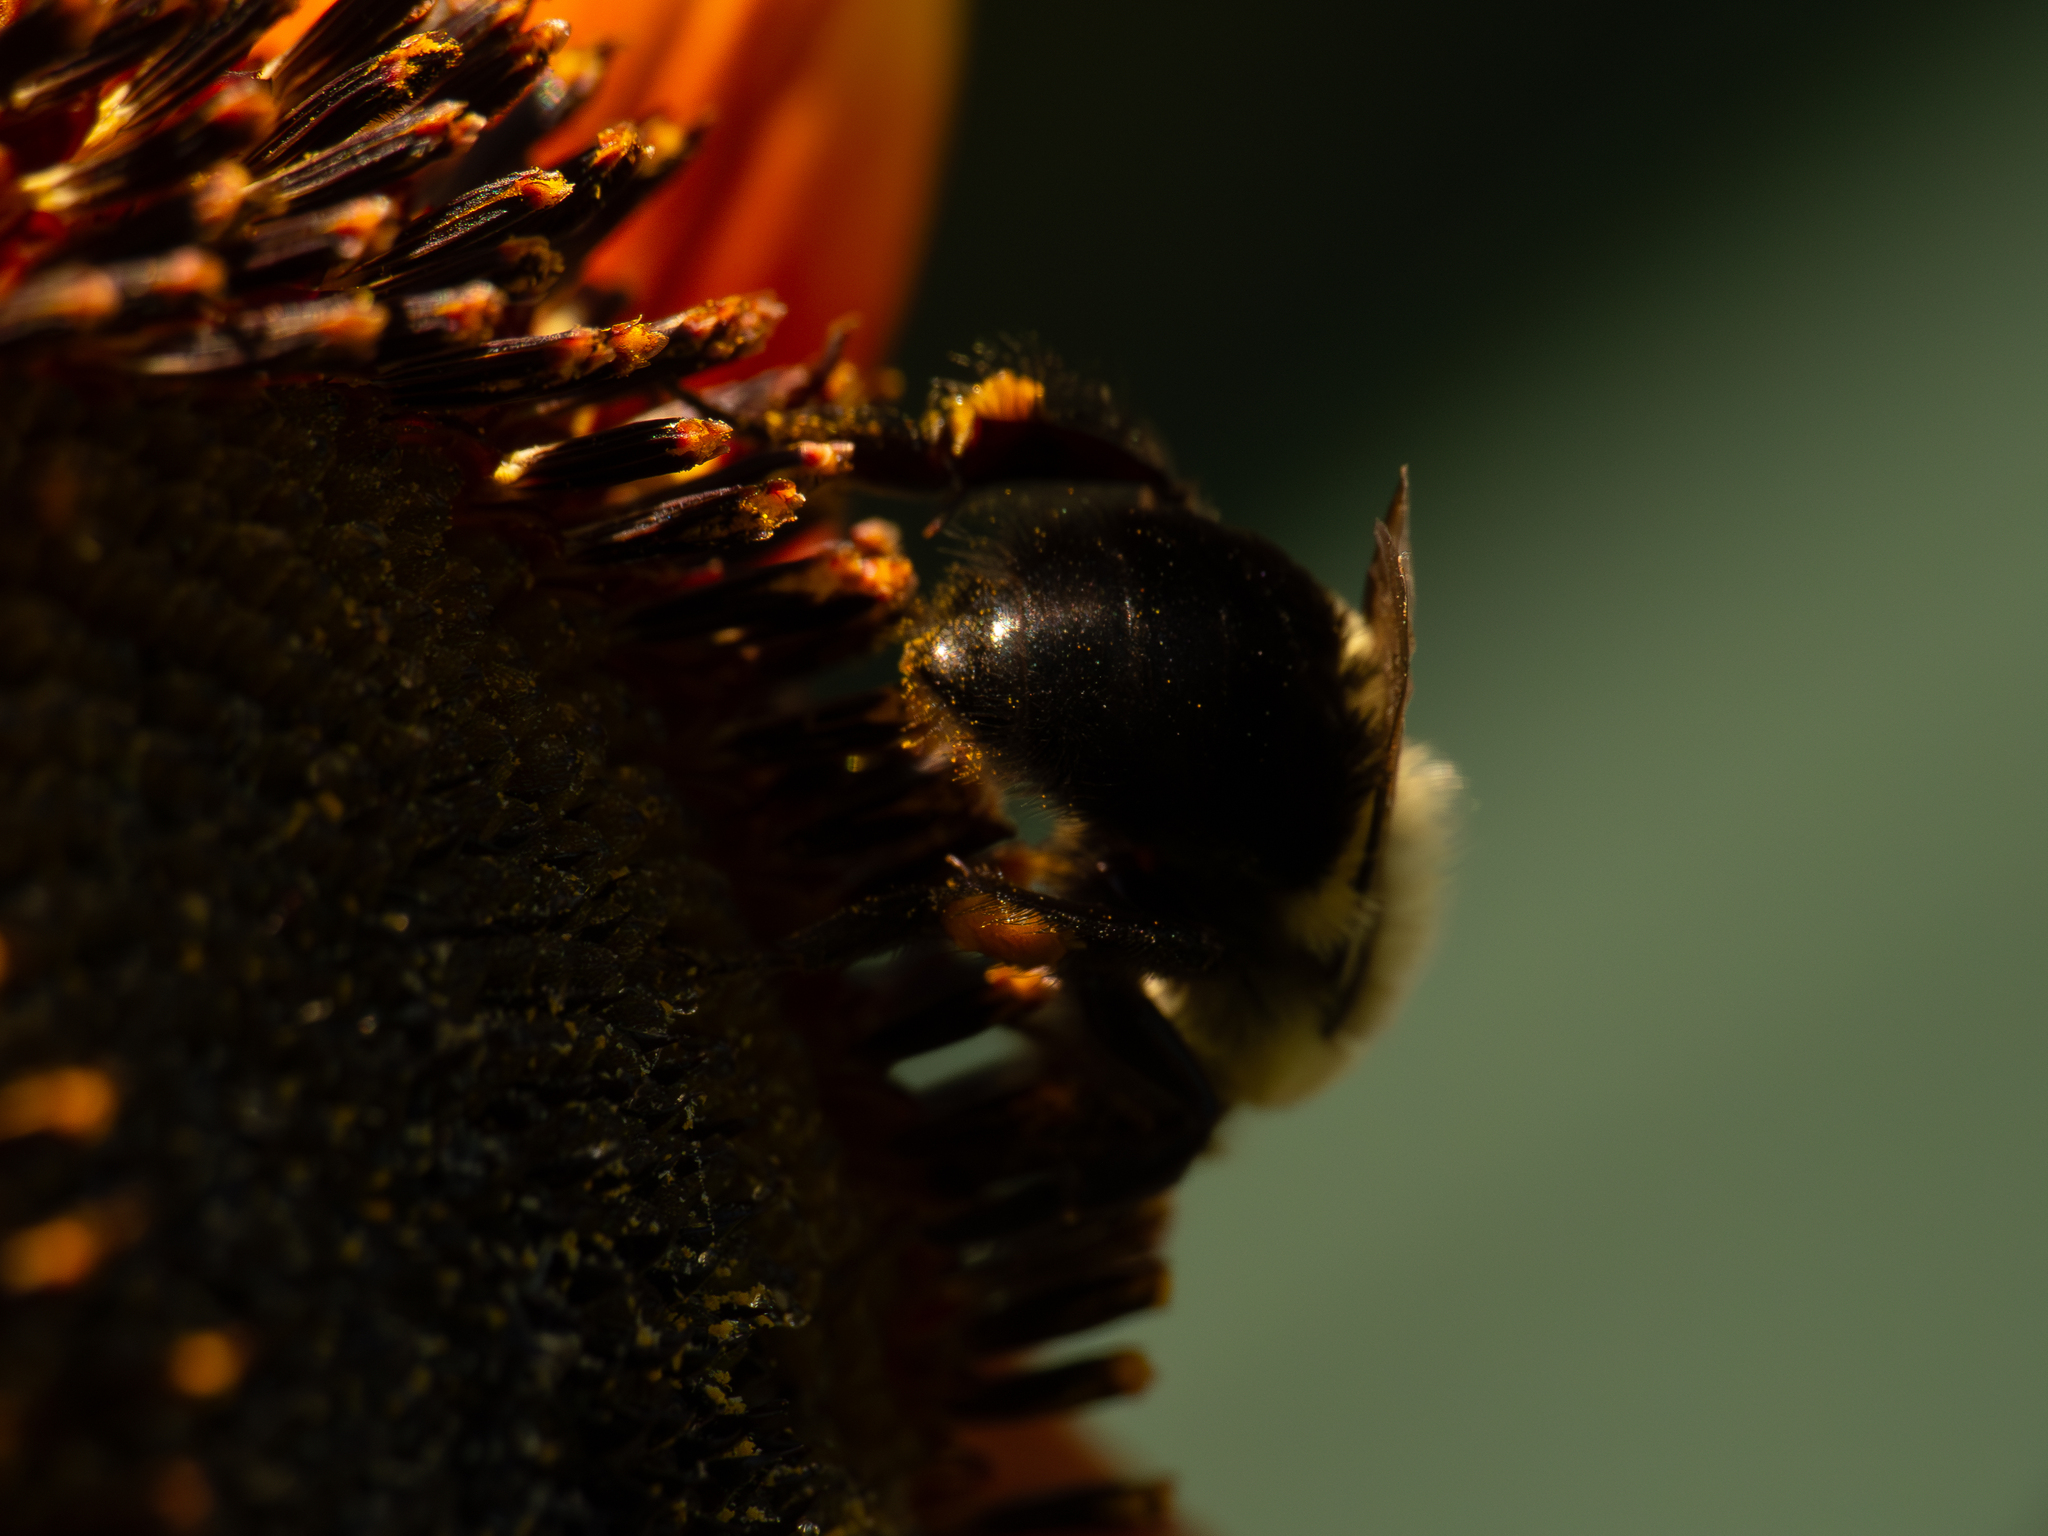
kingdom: Animalia
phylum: Arthropoda
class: Insecta
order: Hymenoptera
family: Apidae
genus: Bombus
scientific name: Bombus impatiens
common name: Common eastern bumble bee
